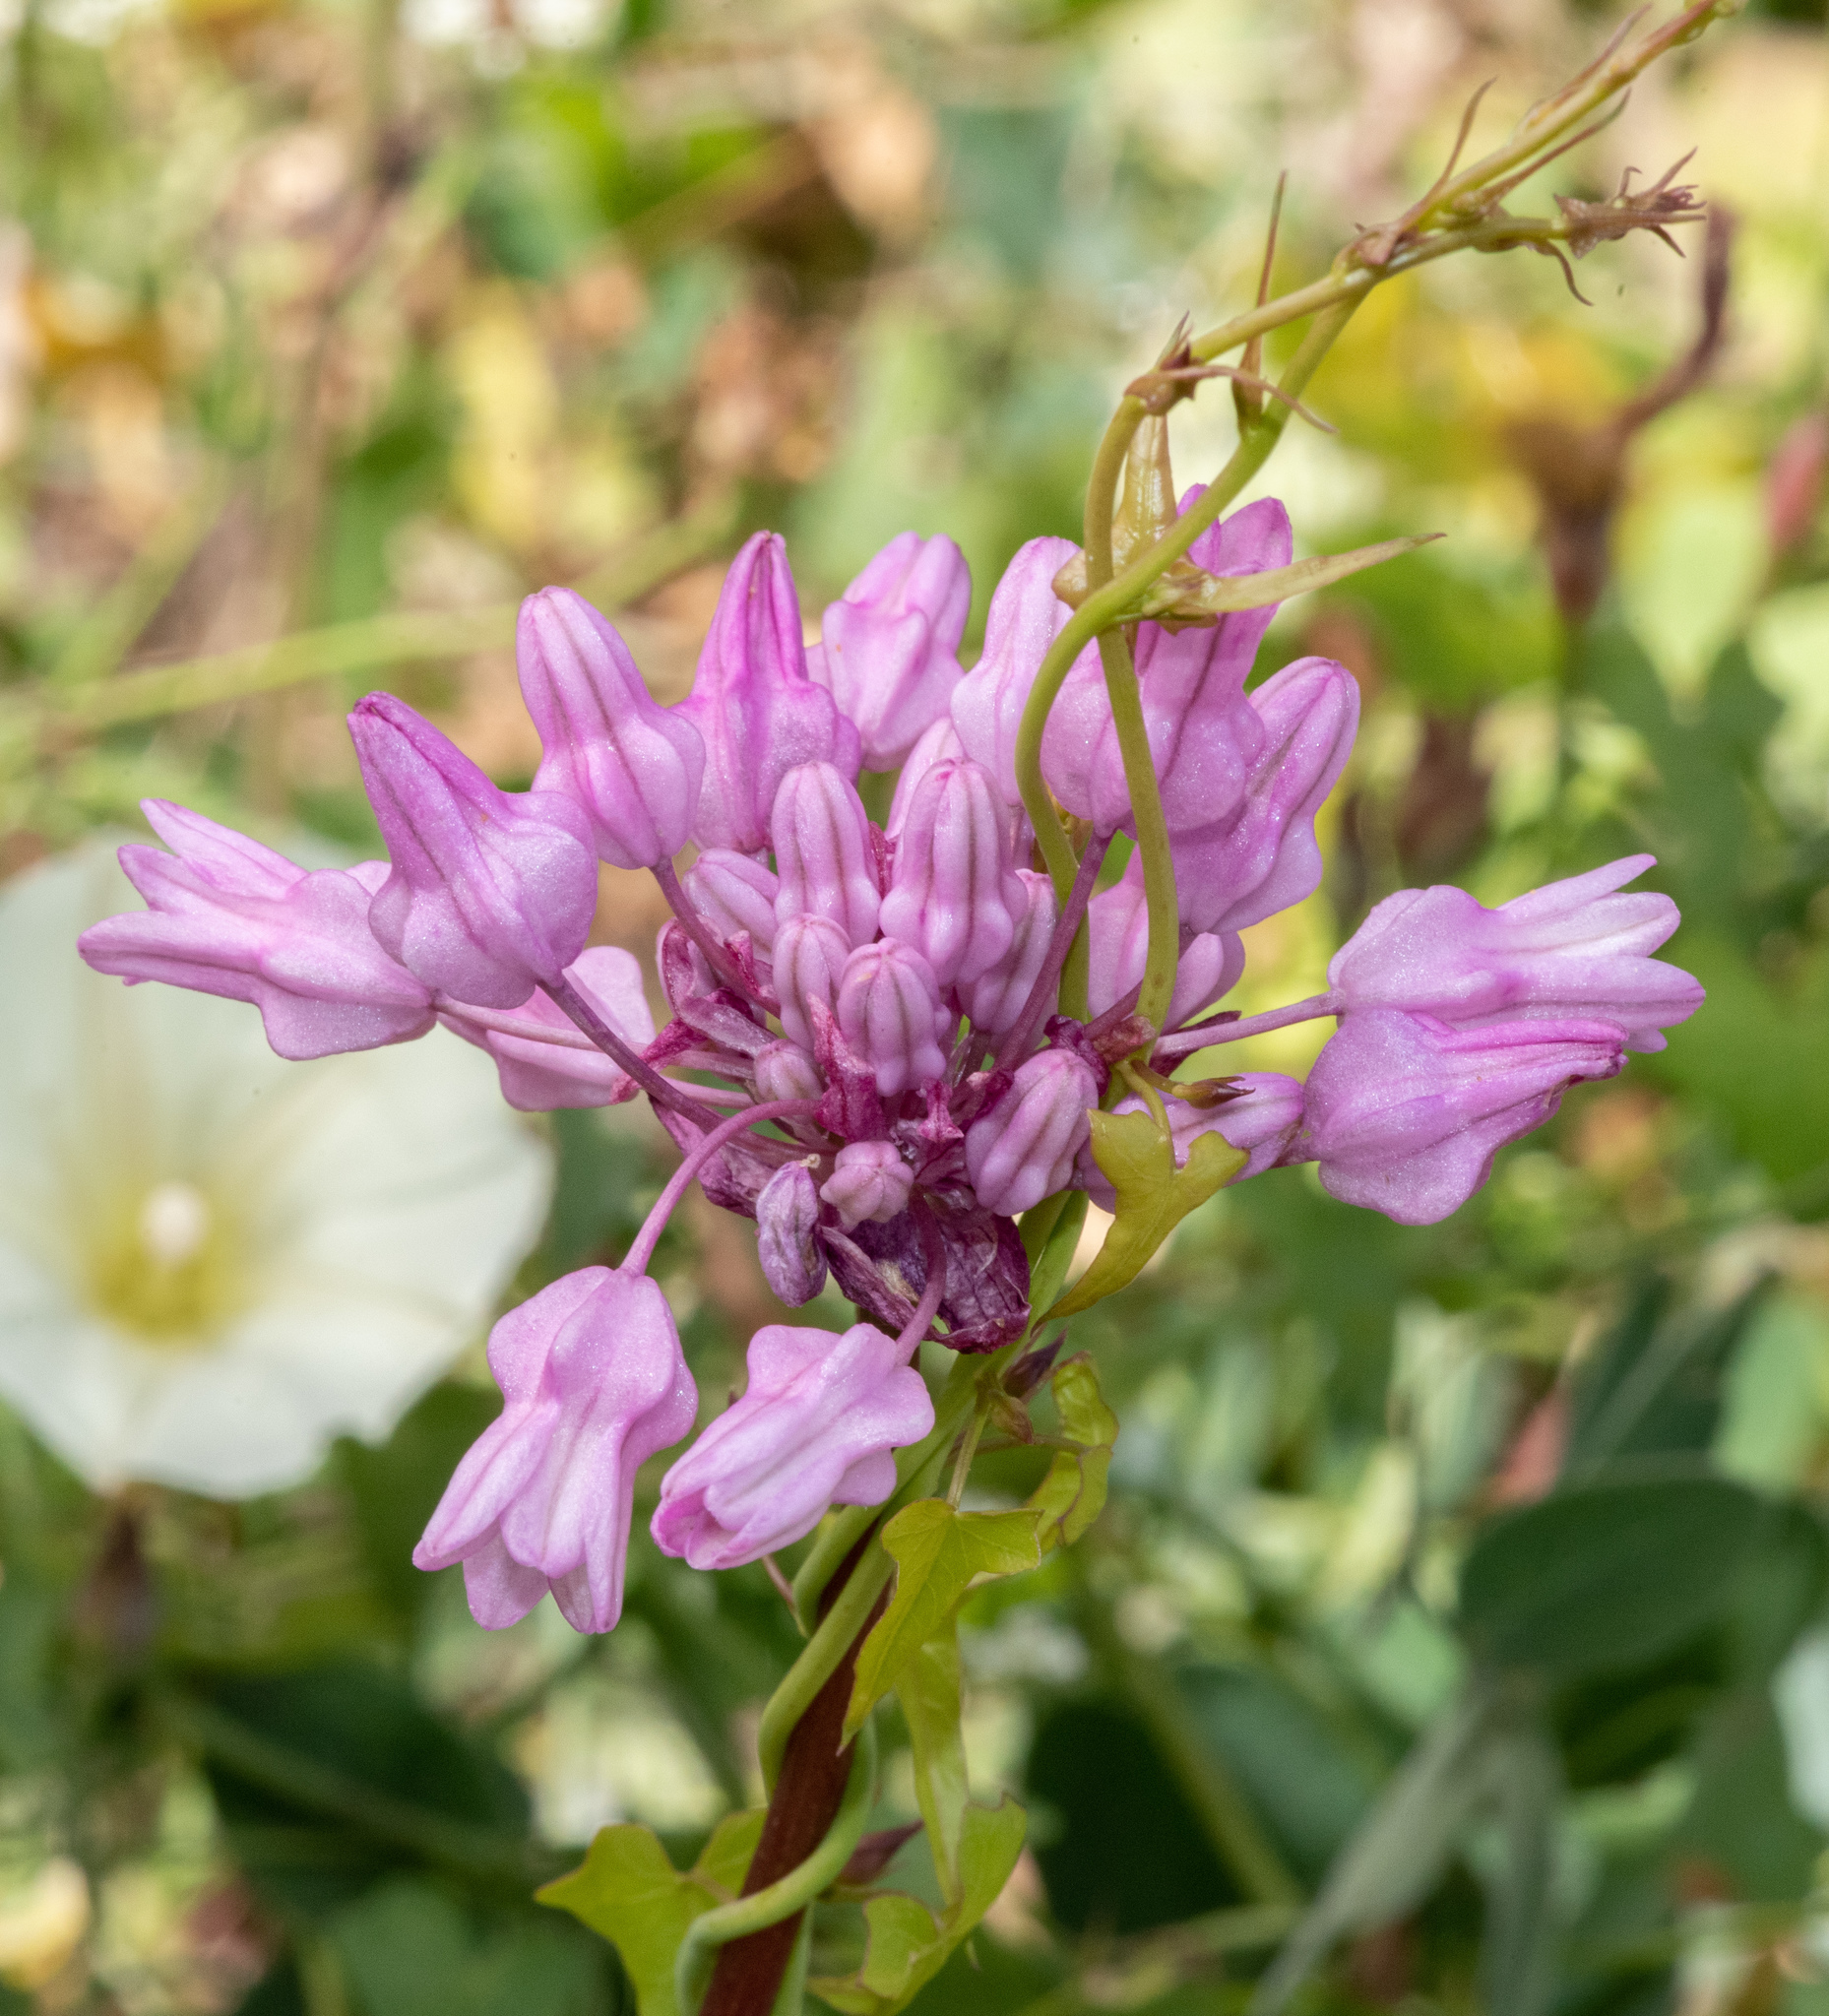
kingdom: Plantae
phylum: Tracheophyta
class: Liliopsida
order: Asparagales
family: Asparagaceae
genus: Dichelostemma
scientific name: Dichelostemma volubile
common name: Trining brodiaea
